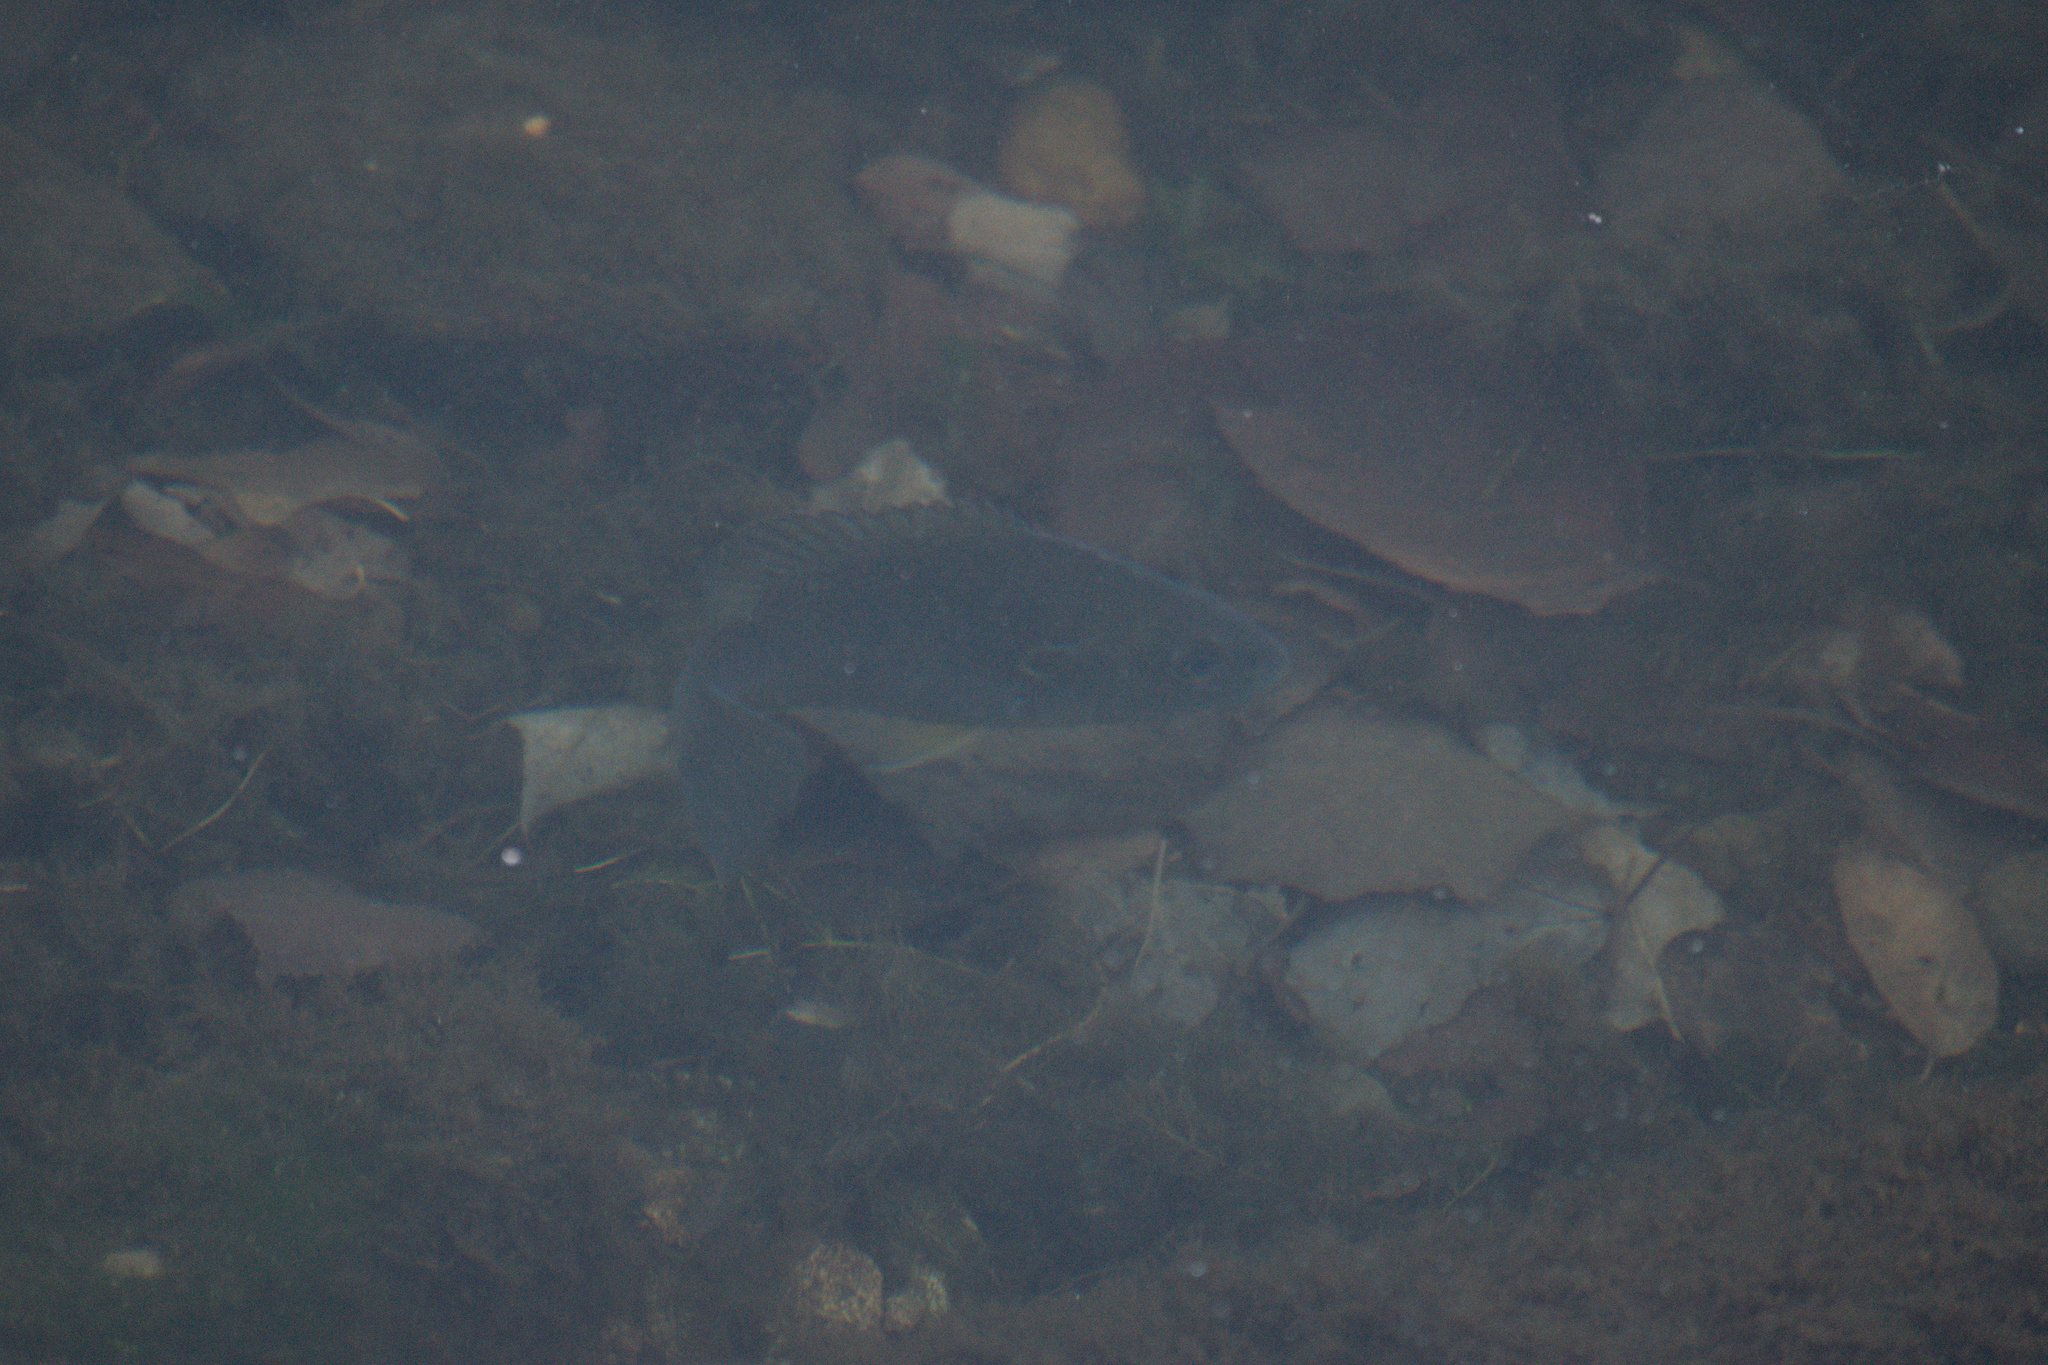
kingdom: Animalia
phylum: Chordata
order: Perciformes
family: Centrarchidae
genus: Lepomis
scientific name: Lepomis cyanellus
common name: Green sunfish
